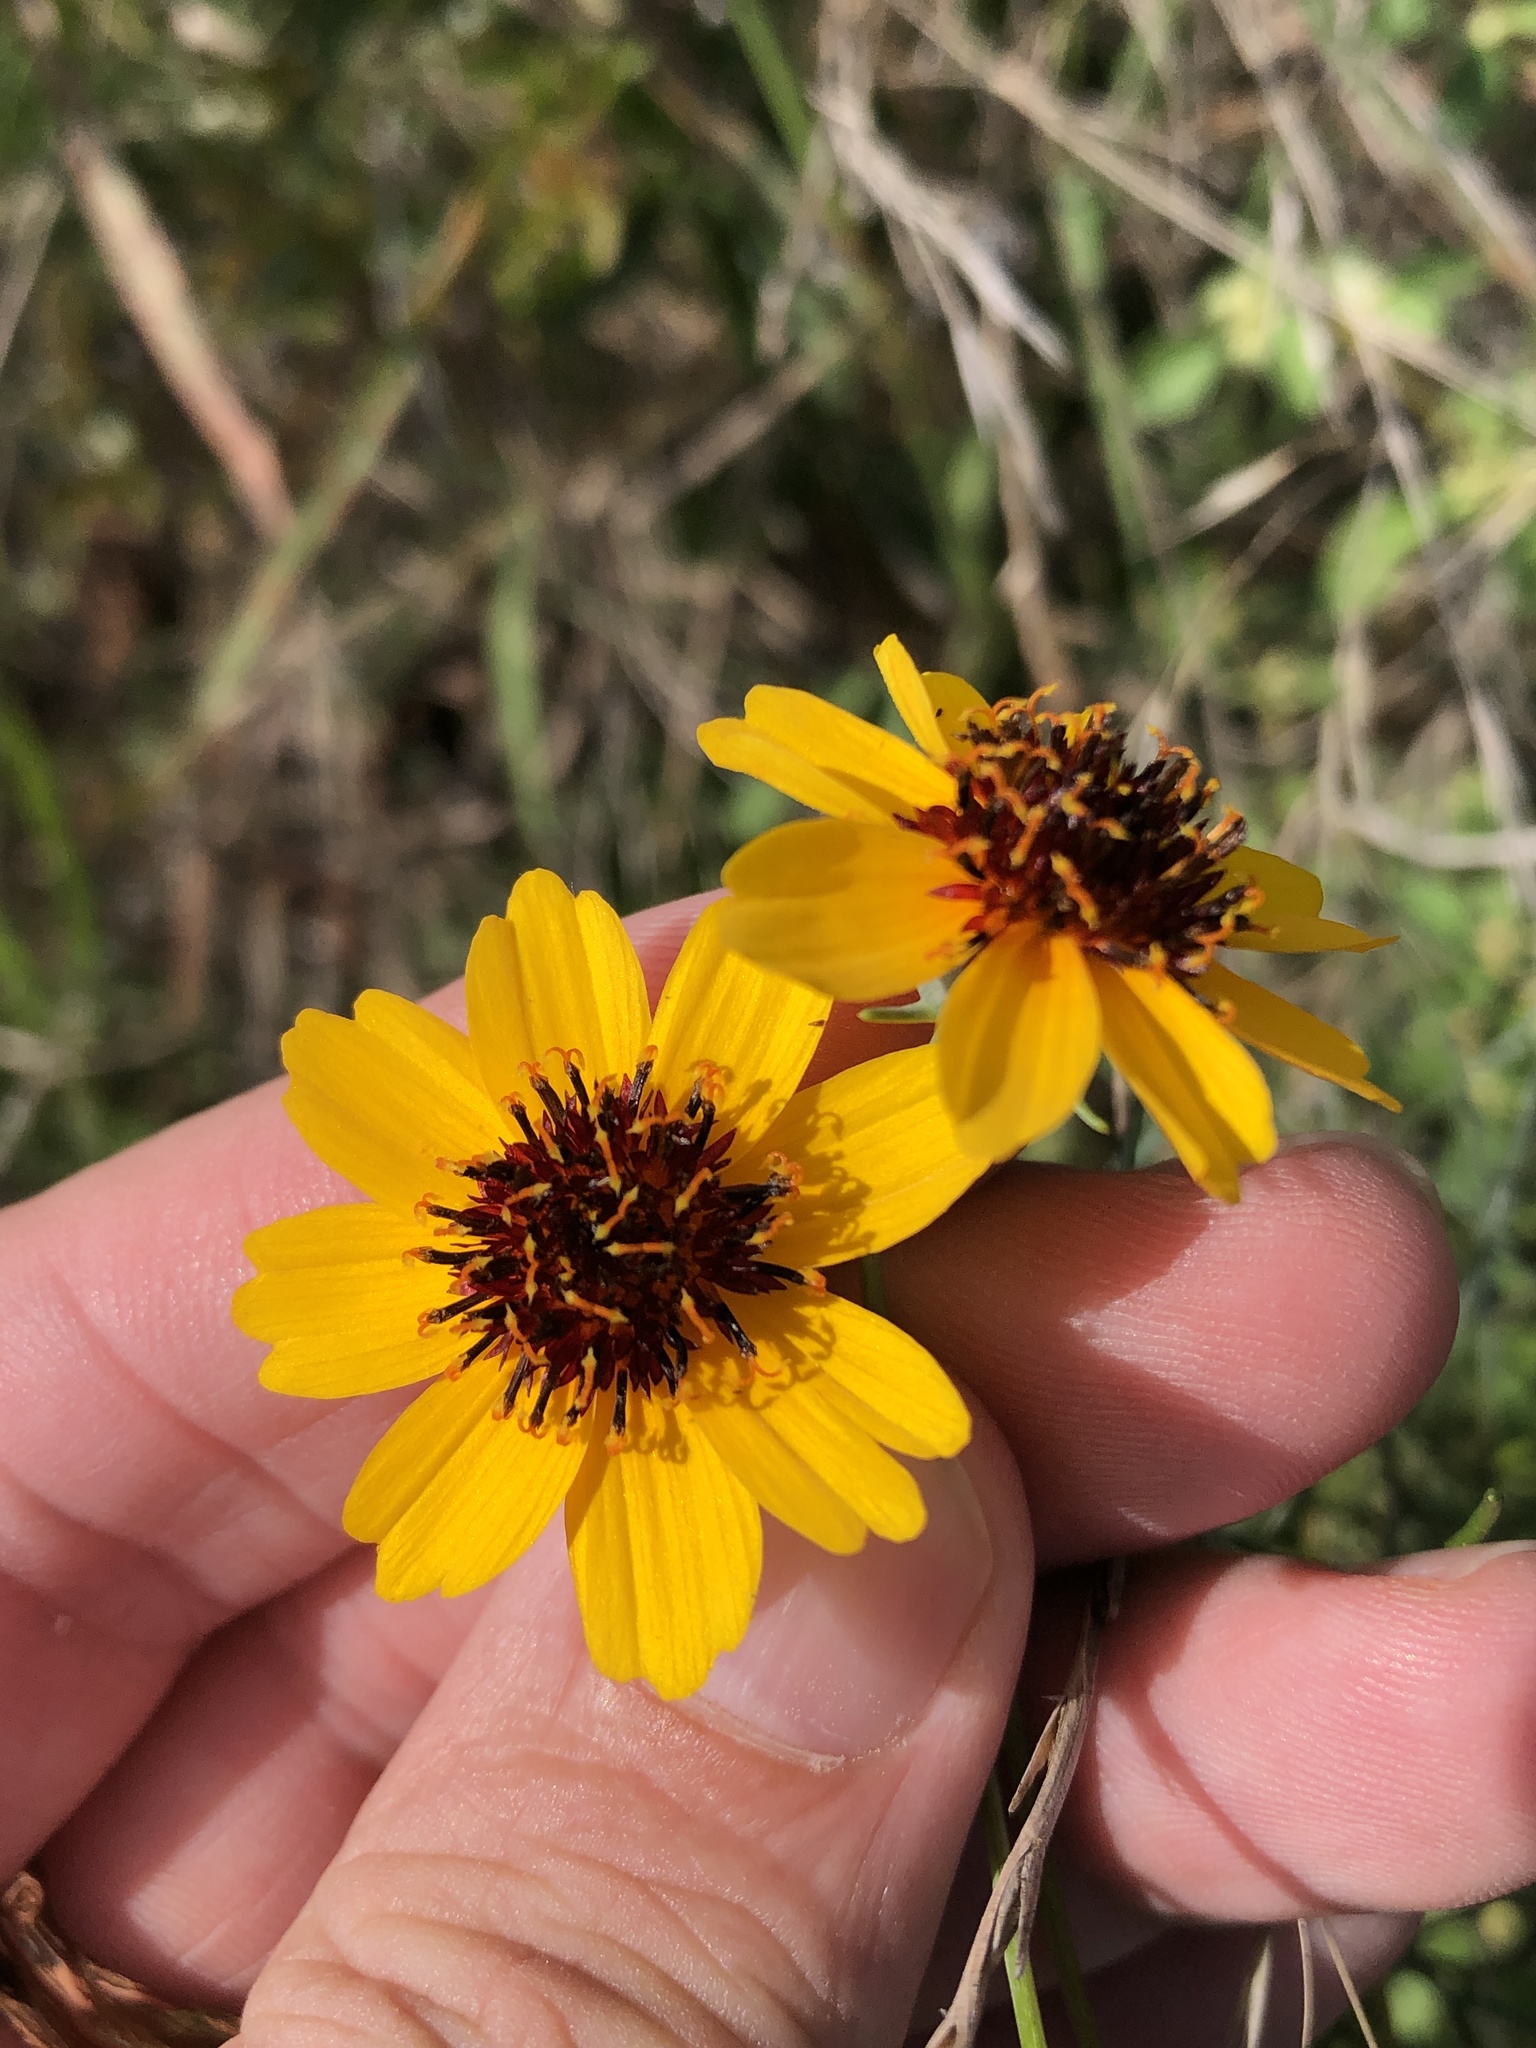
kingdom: Plantae
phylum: Tracheophyta
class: Magnoliopsida
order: Asterales
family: Asteraceae
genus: Thelesperma
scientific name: Thelesperma filifolium
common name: Stiff greenthread
